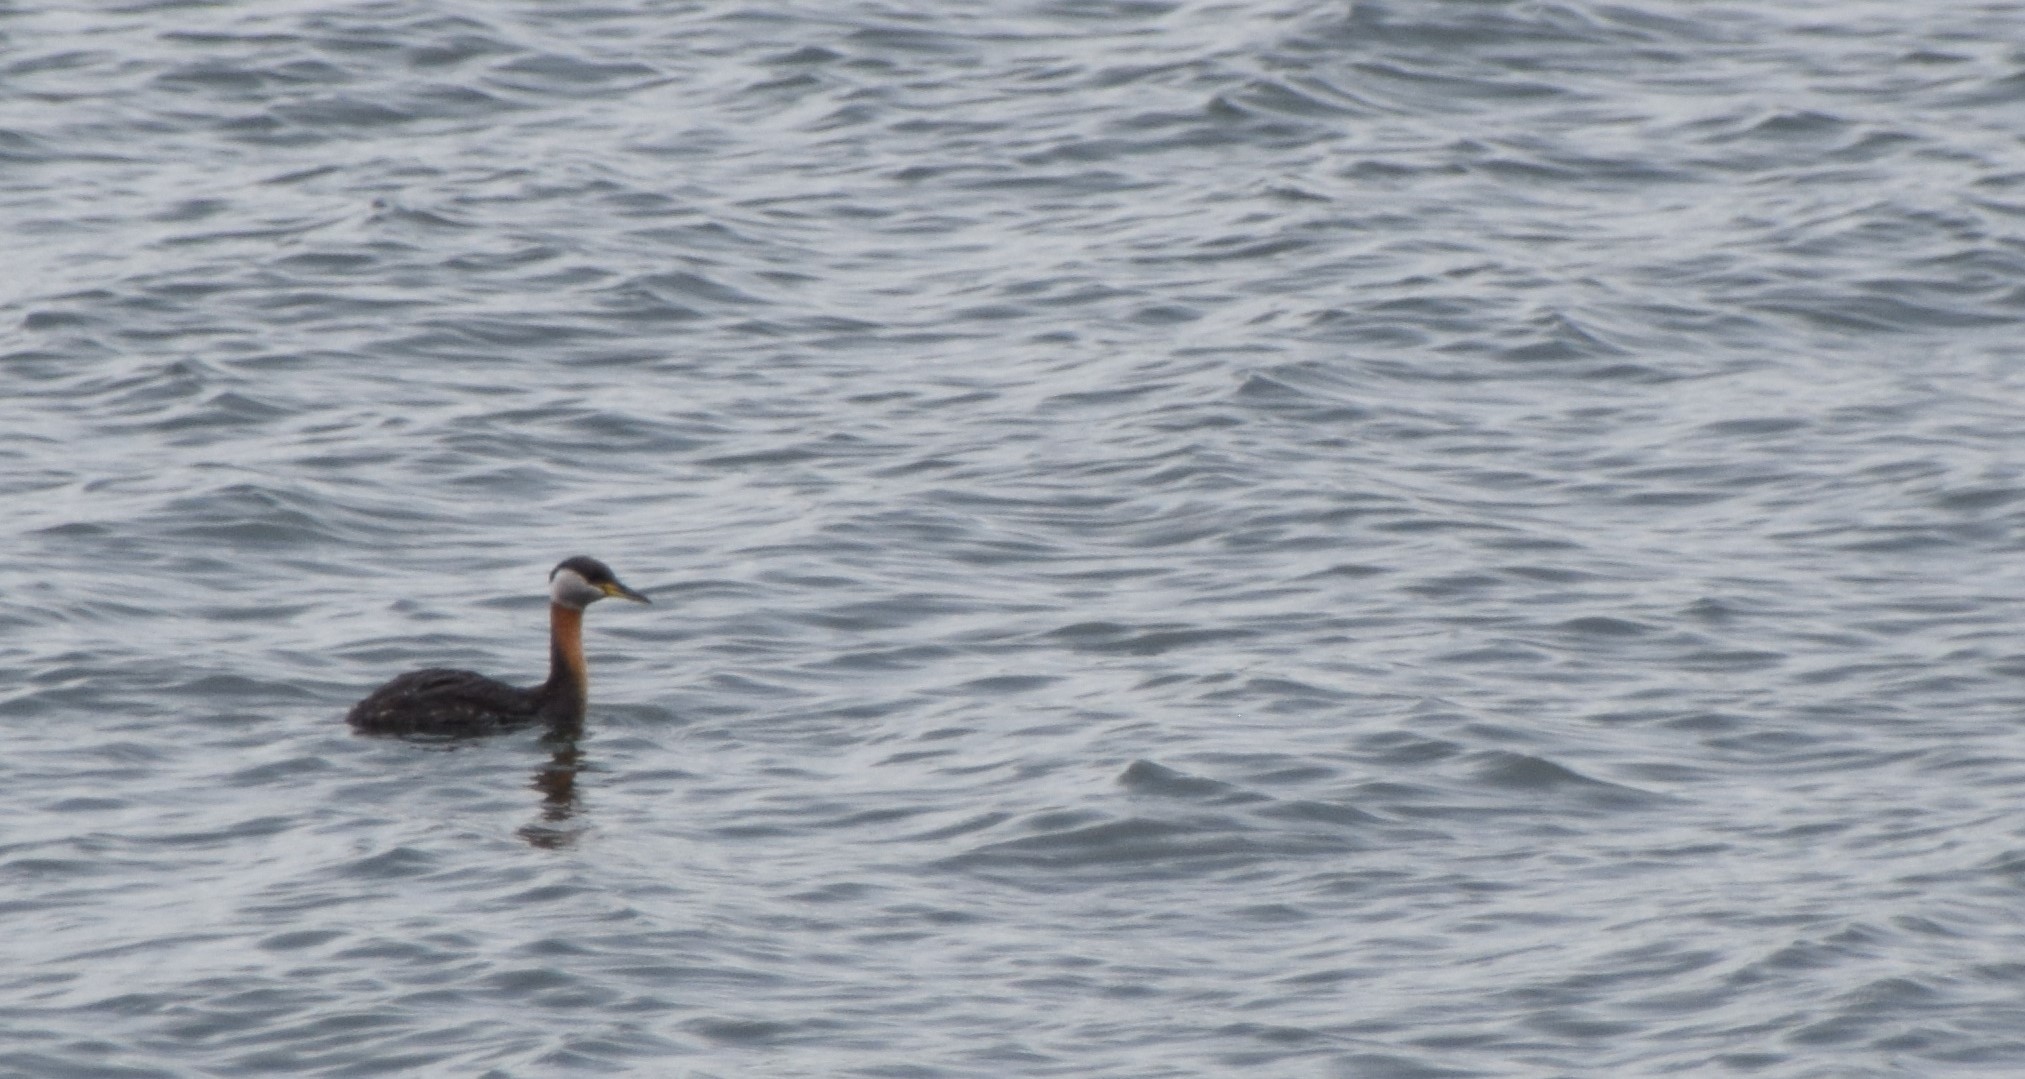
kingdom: Animalia
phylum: Chordata
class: Aves
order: Podicipediformes
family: Podicipedidae
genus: Podiceps
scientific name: Podiceps grisegena
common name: Red-necked grebe
